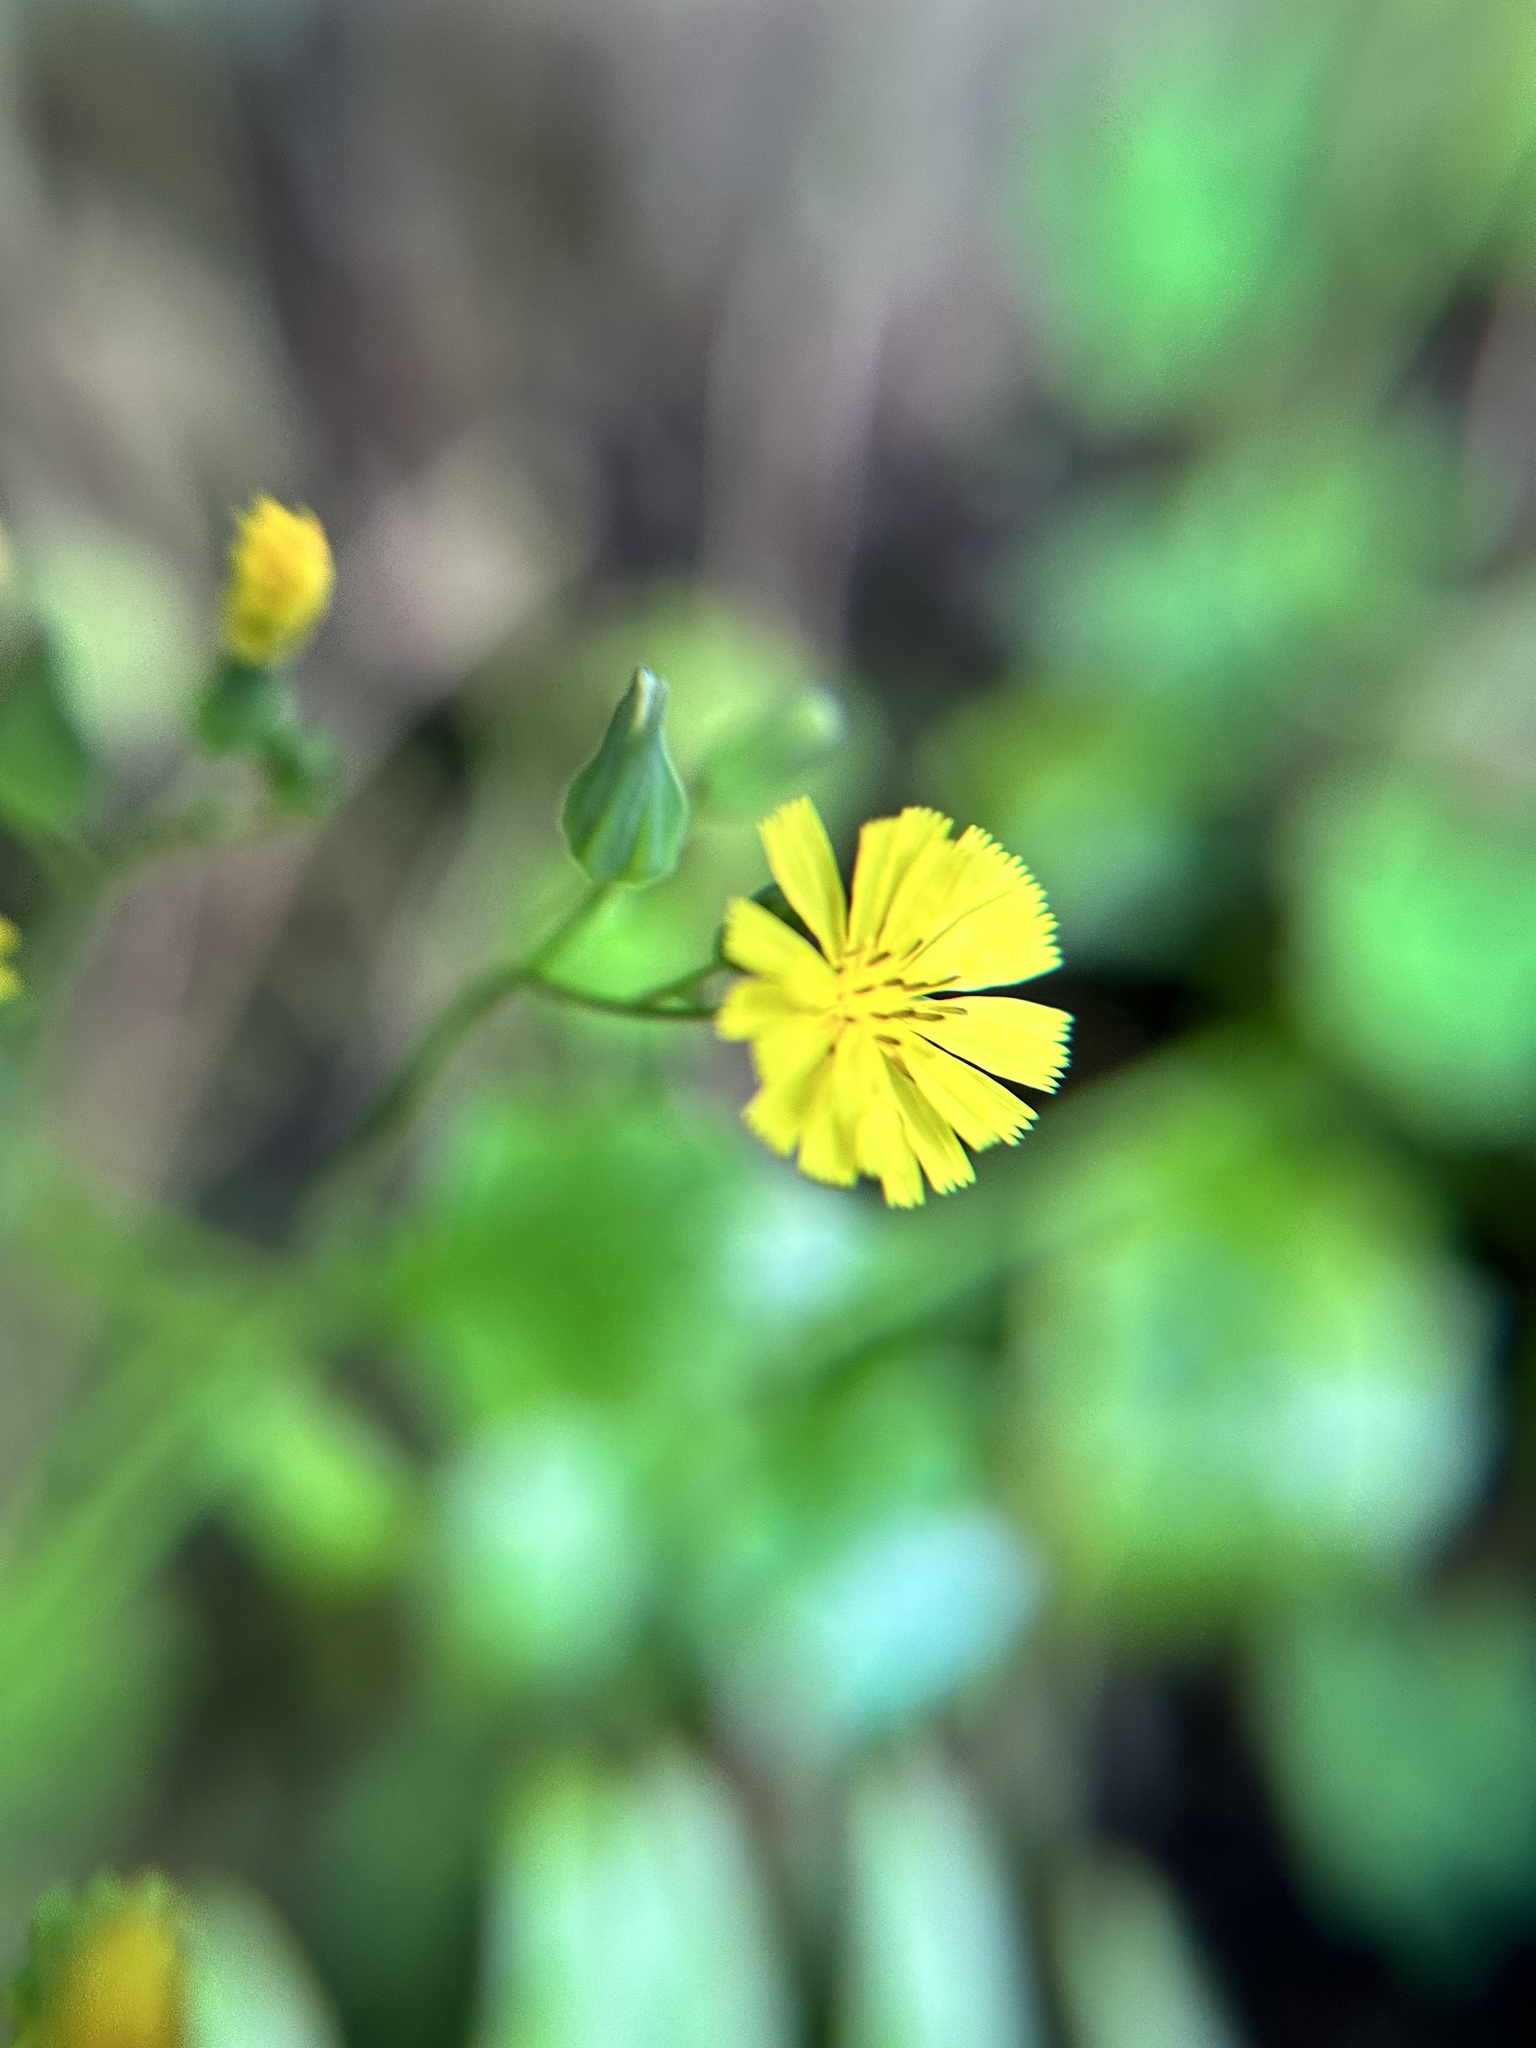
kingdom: Plantae
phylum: Tracheophyta
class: Magnoliopsida
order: Asterales
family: Asteraceae
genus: Youngia
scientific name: Youngia japonica
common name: Oriental false hawksbeard
